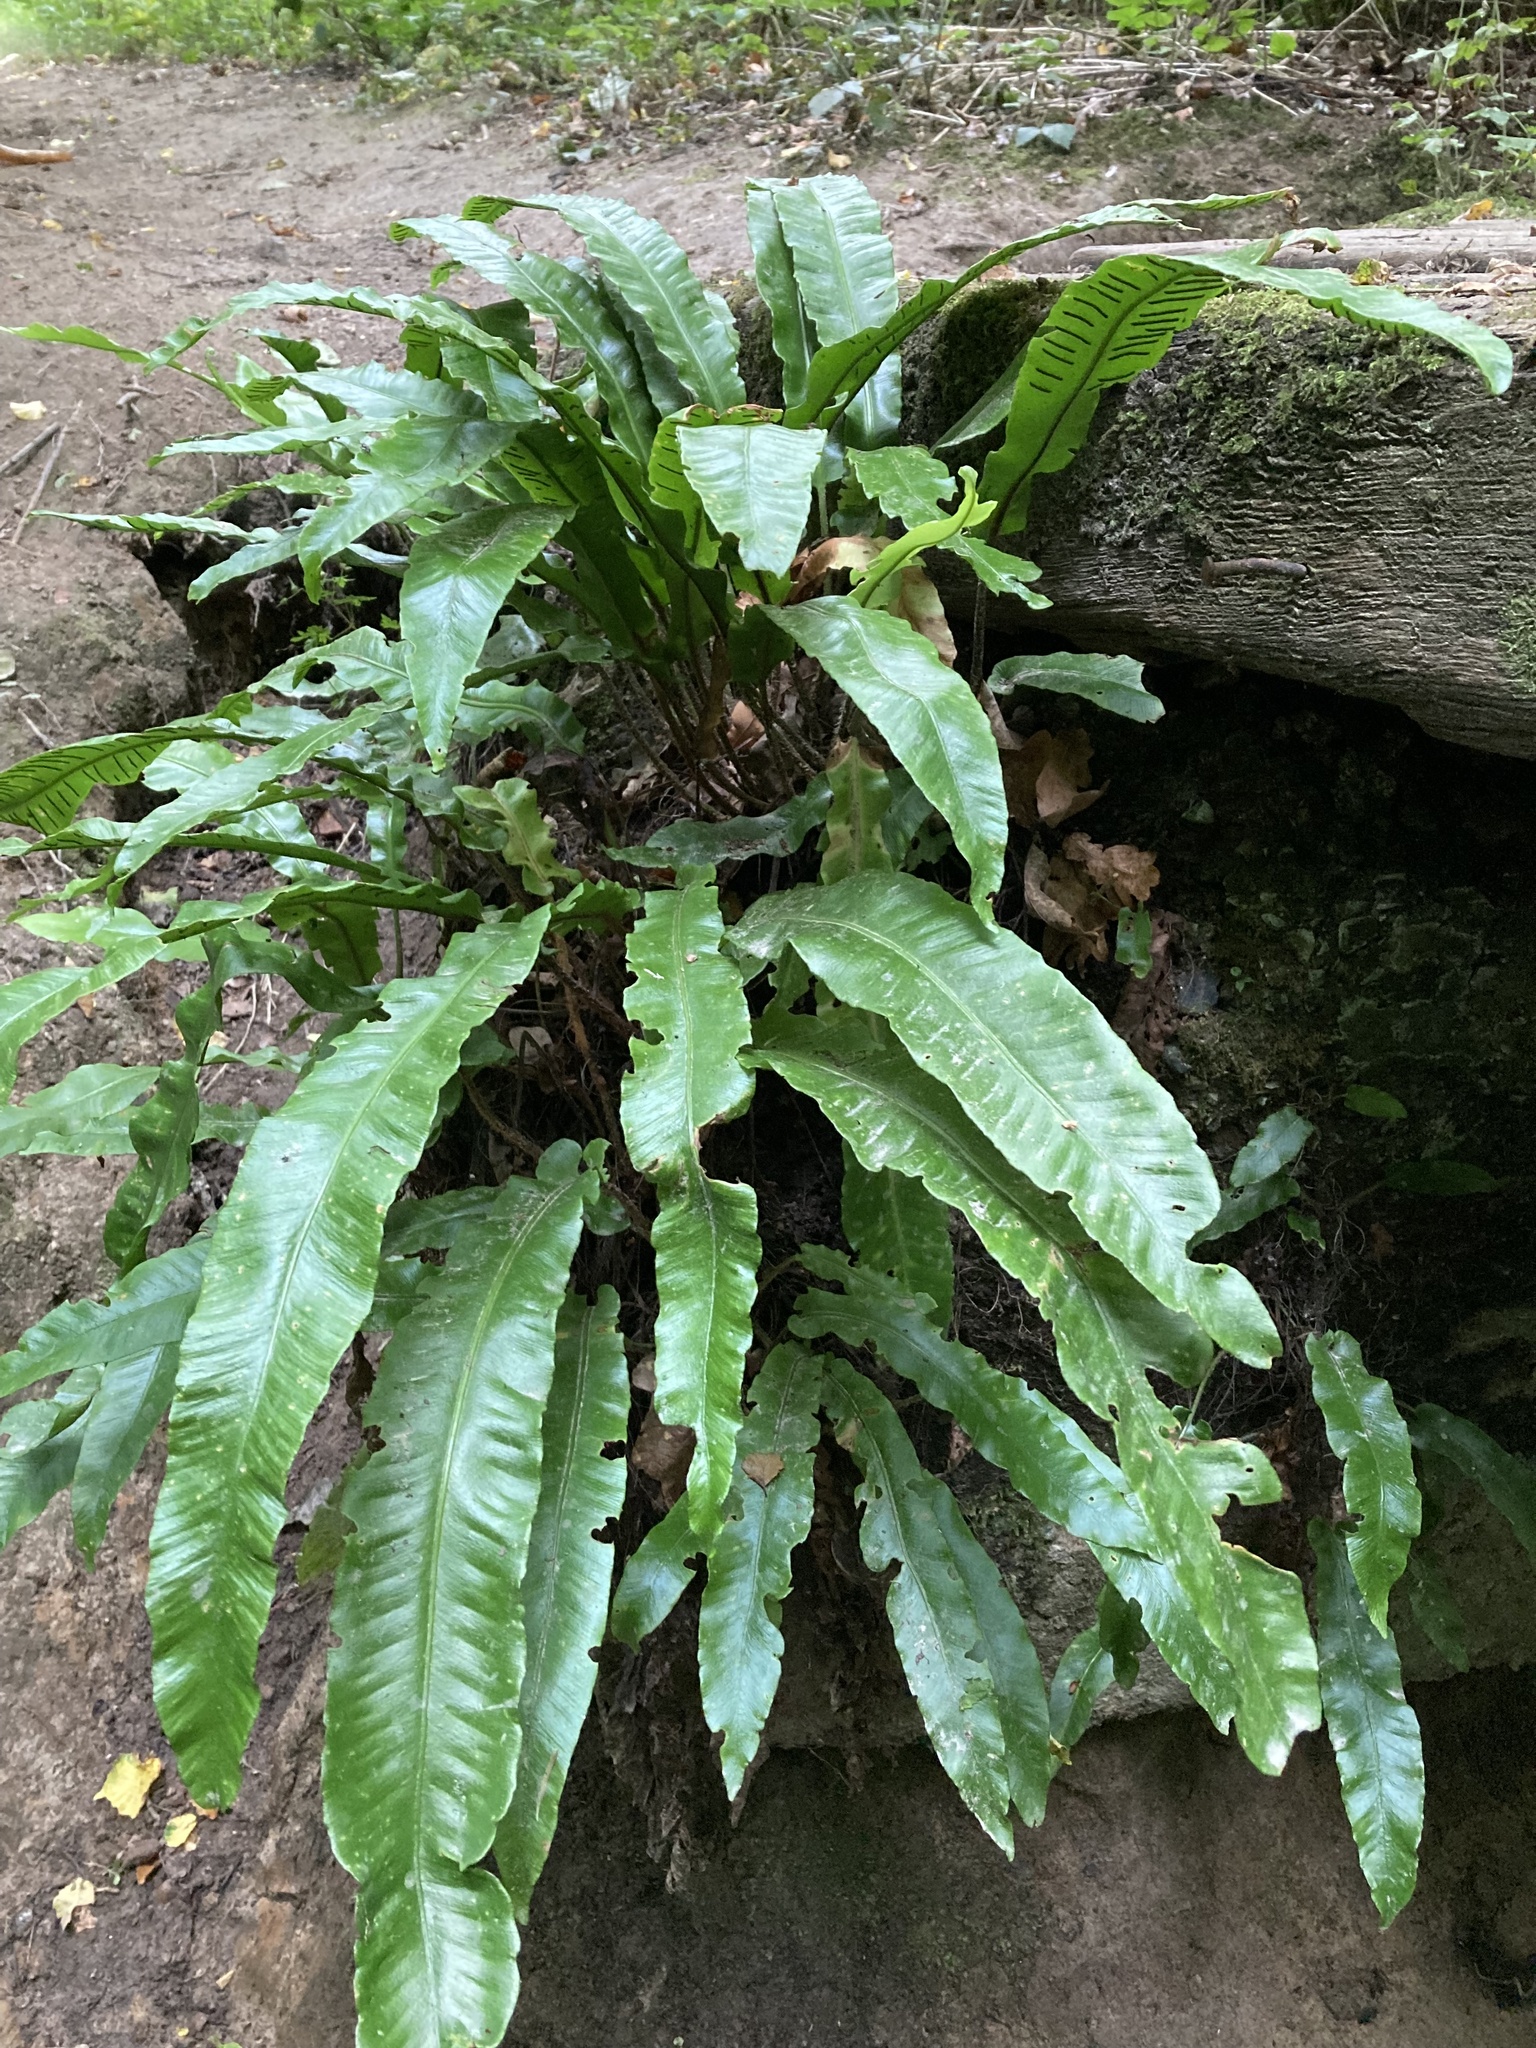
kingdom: Plantae
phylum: Tracheophyta
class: Polypodiopsida
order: Polypodiales
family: Aspleniaceae
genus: Asplenium
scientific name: Asplenium scolopendrium
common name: Hart's-tongue fern
